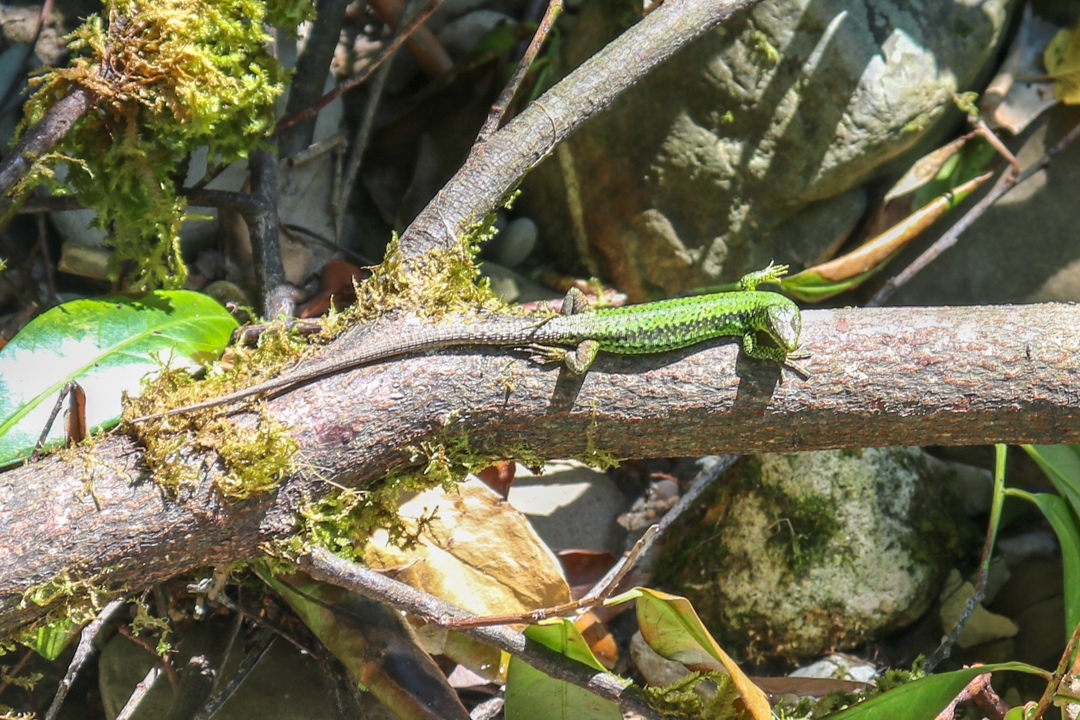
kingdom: Animalia
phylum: Chordata
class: Squamata
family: Lacertidae
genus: Darevskia
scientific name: Darevskia brauneri
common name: Brauner's rock lizard
